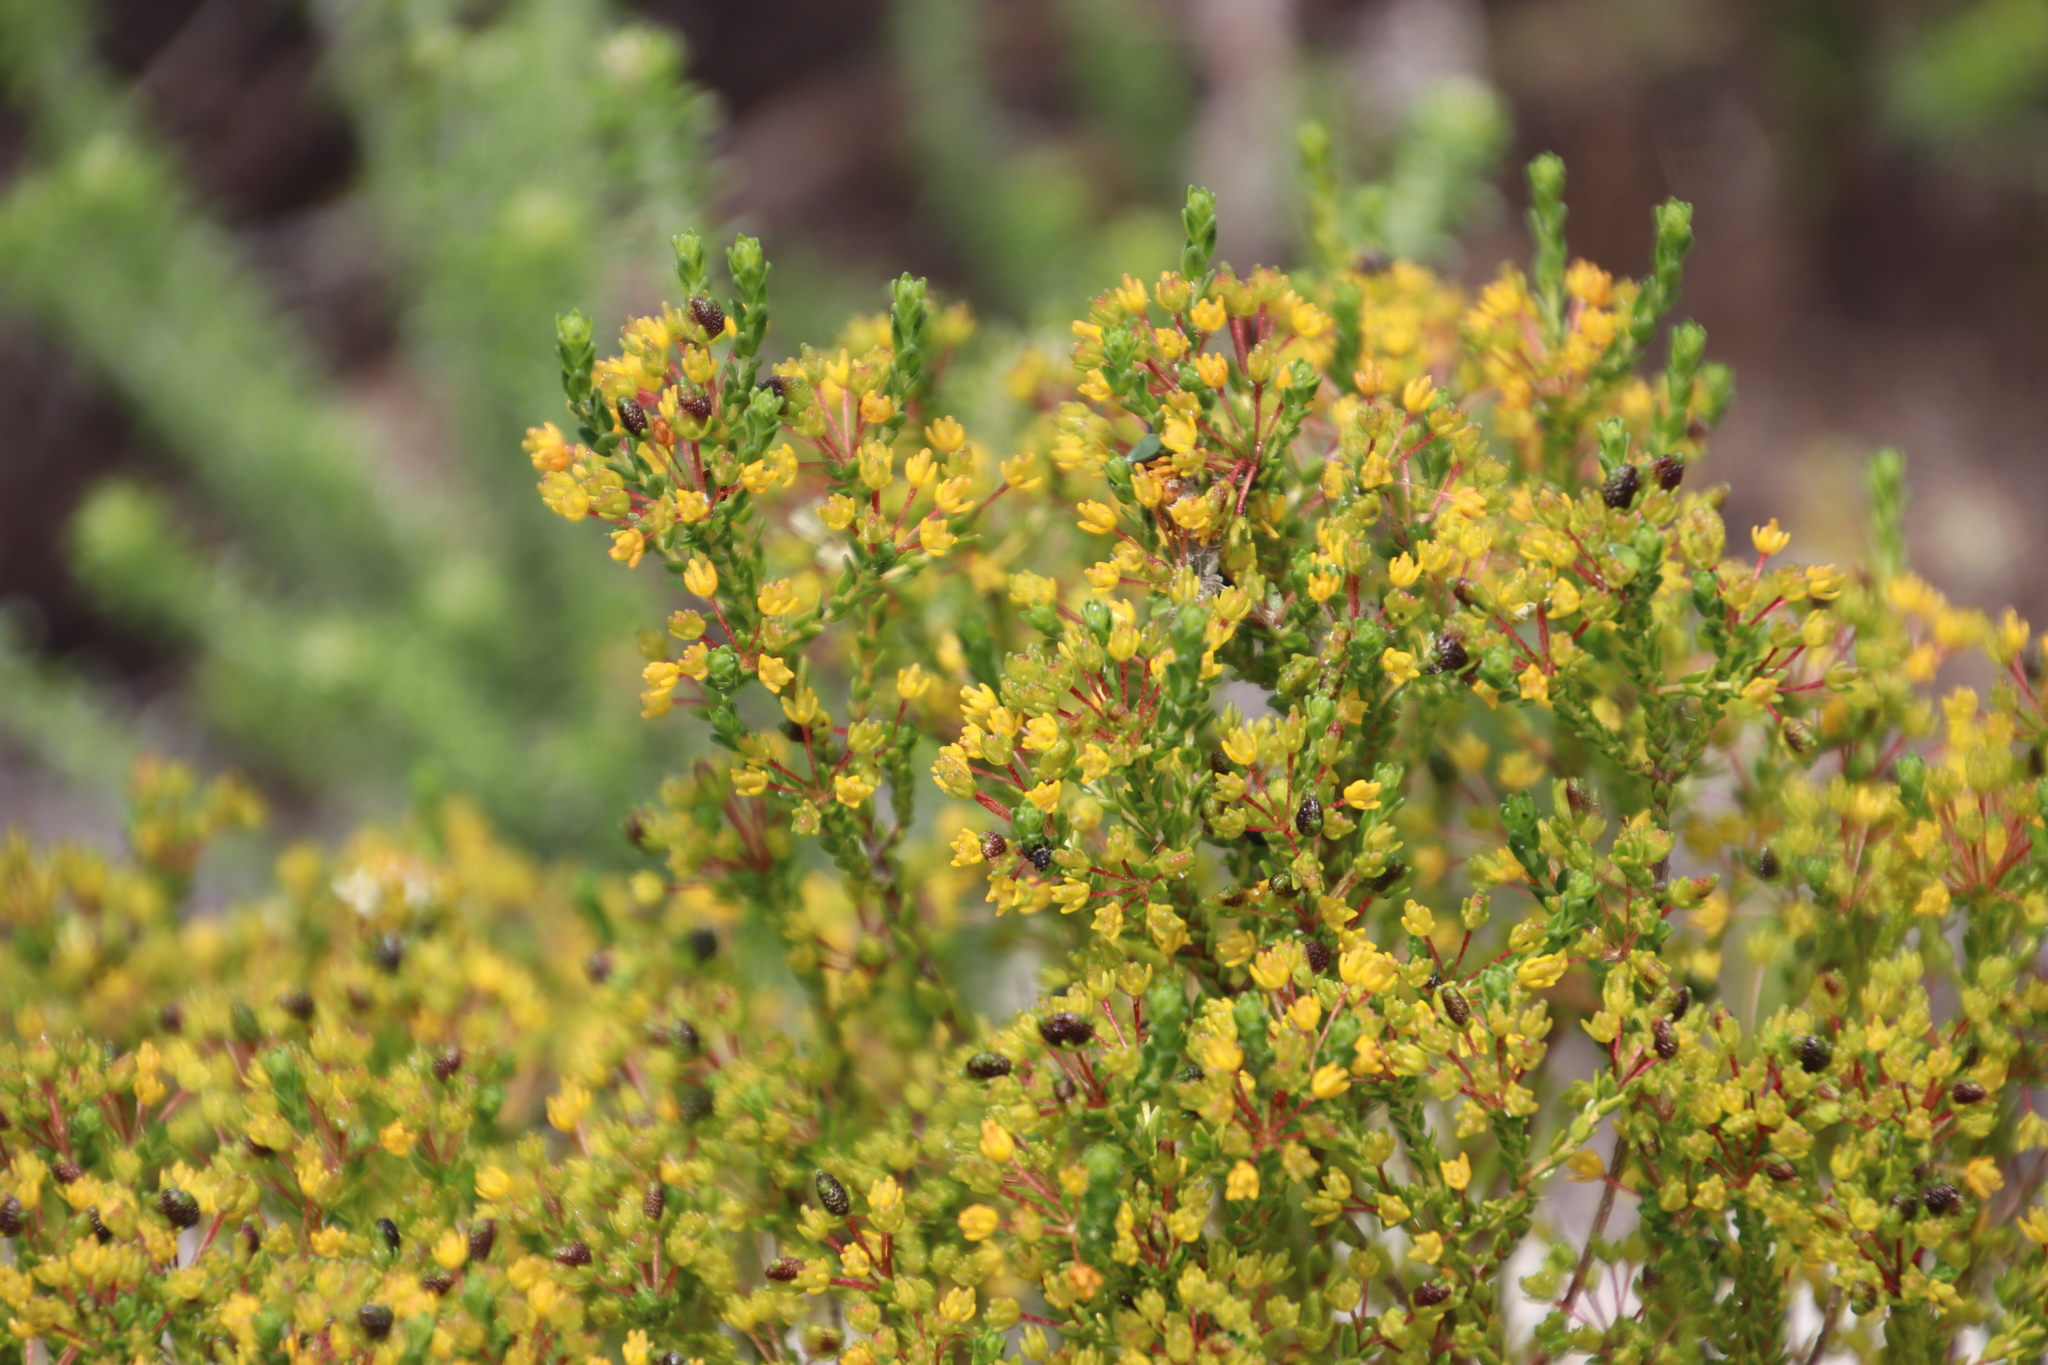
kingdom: Plantae
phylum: Tracheophyta
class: Magnoliopsida
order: Sapindales
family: Rutaceae
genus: Agathosma
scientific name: Agathosma glabrata
